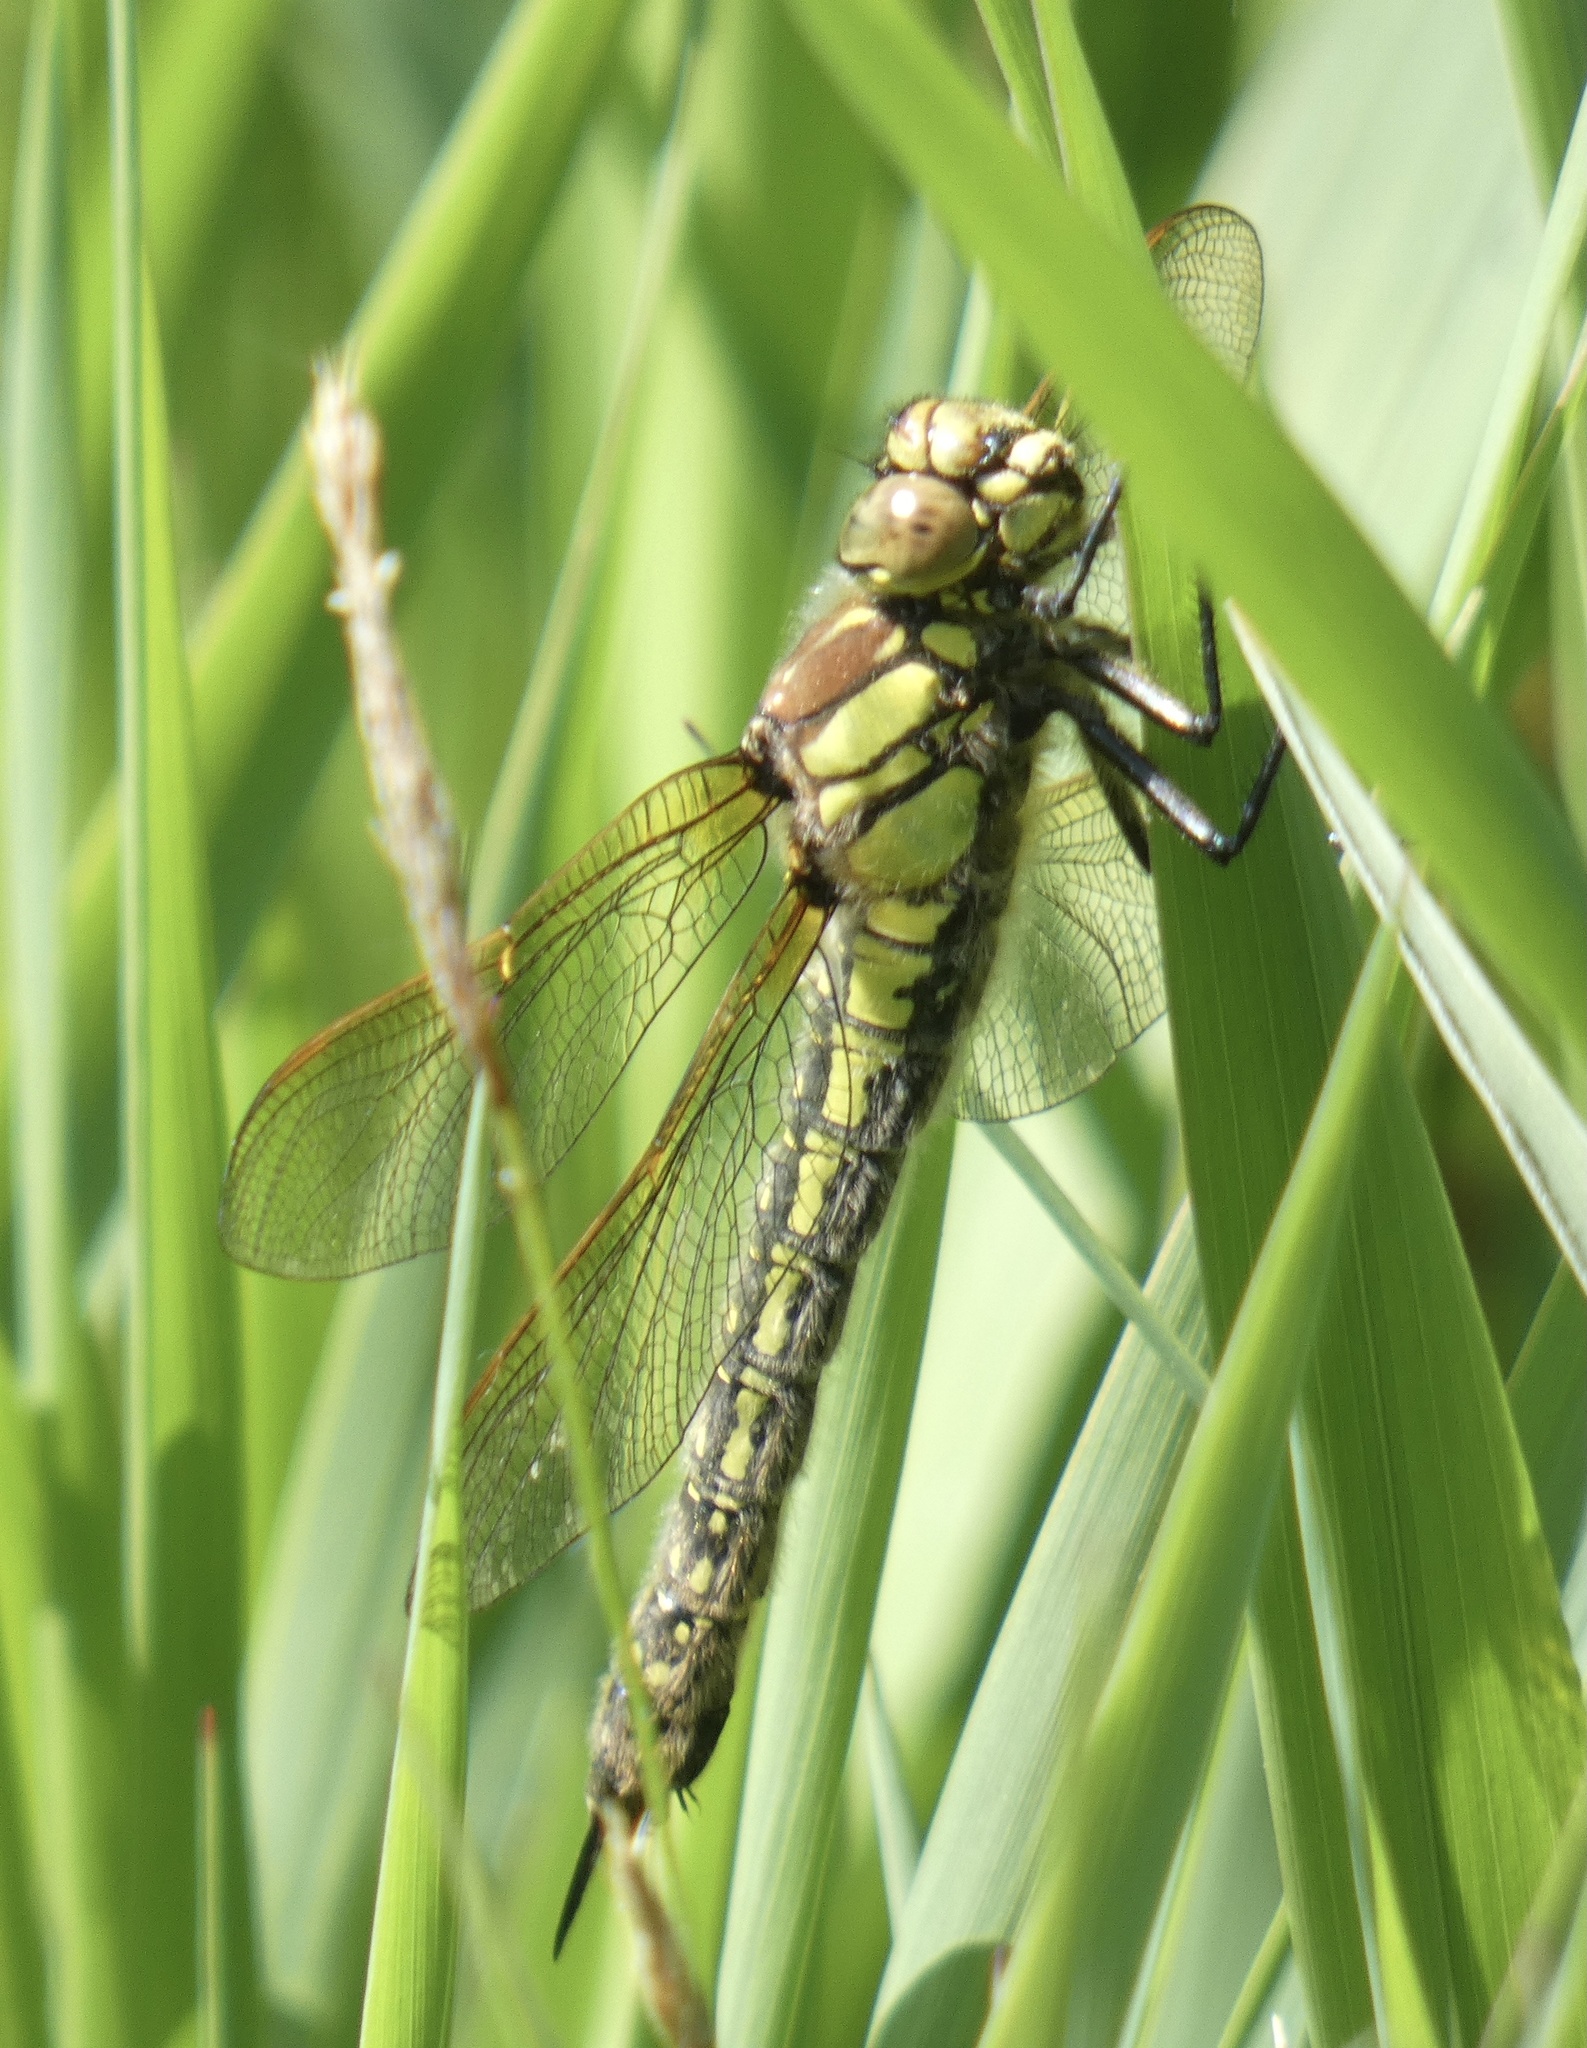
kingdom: Animalia
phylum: Arthropoda
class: Insecta
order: Odonata
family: Aeshnidae
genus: Brachytron
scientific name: Brachytron pratense
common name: Hairy hawker
